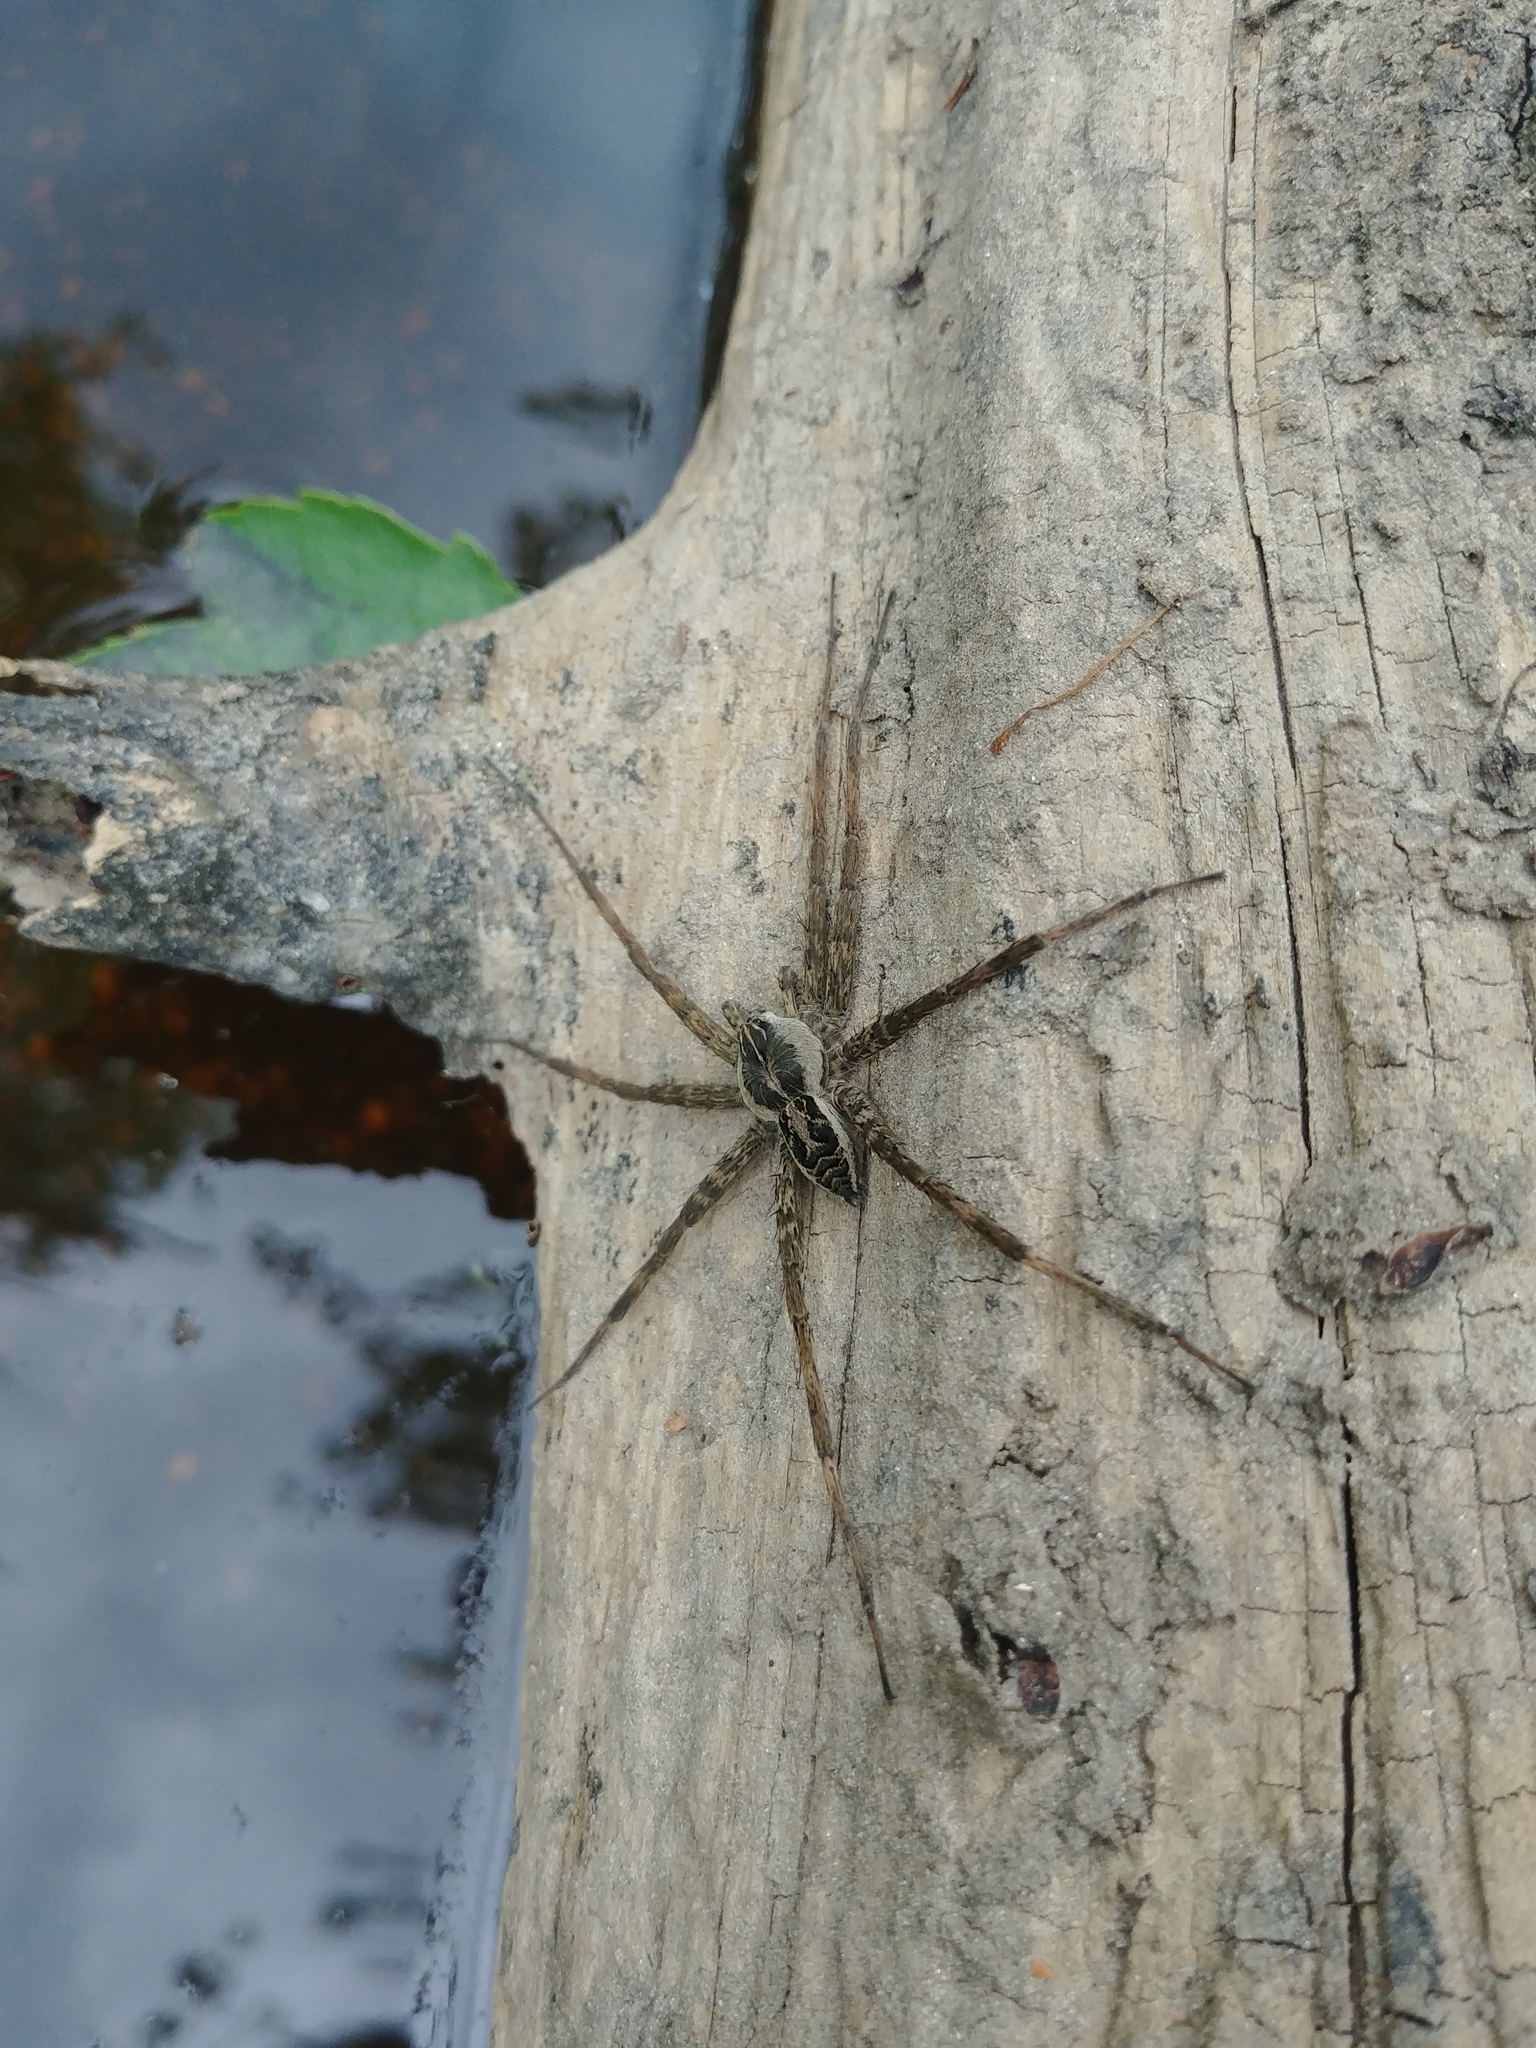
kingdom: Animalia
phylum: Arthropoda
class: Arachnida
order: Araneae
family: Pisauridae
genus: Dolomedes
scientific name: Dolomedes scriptus
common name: Striped fishing spider
